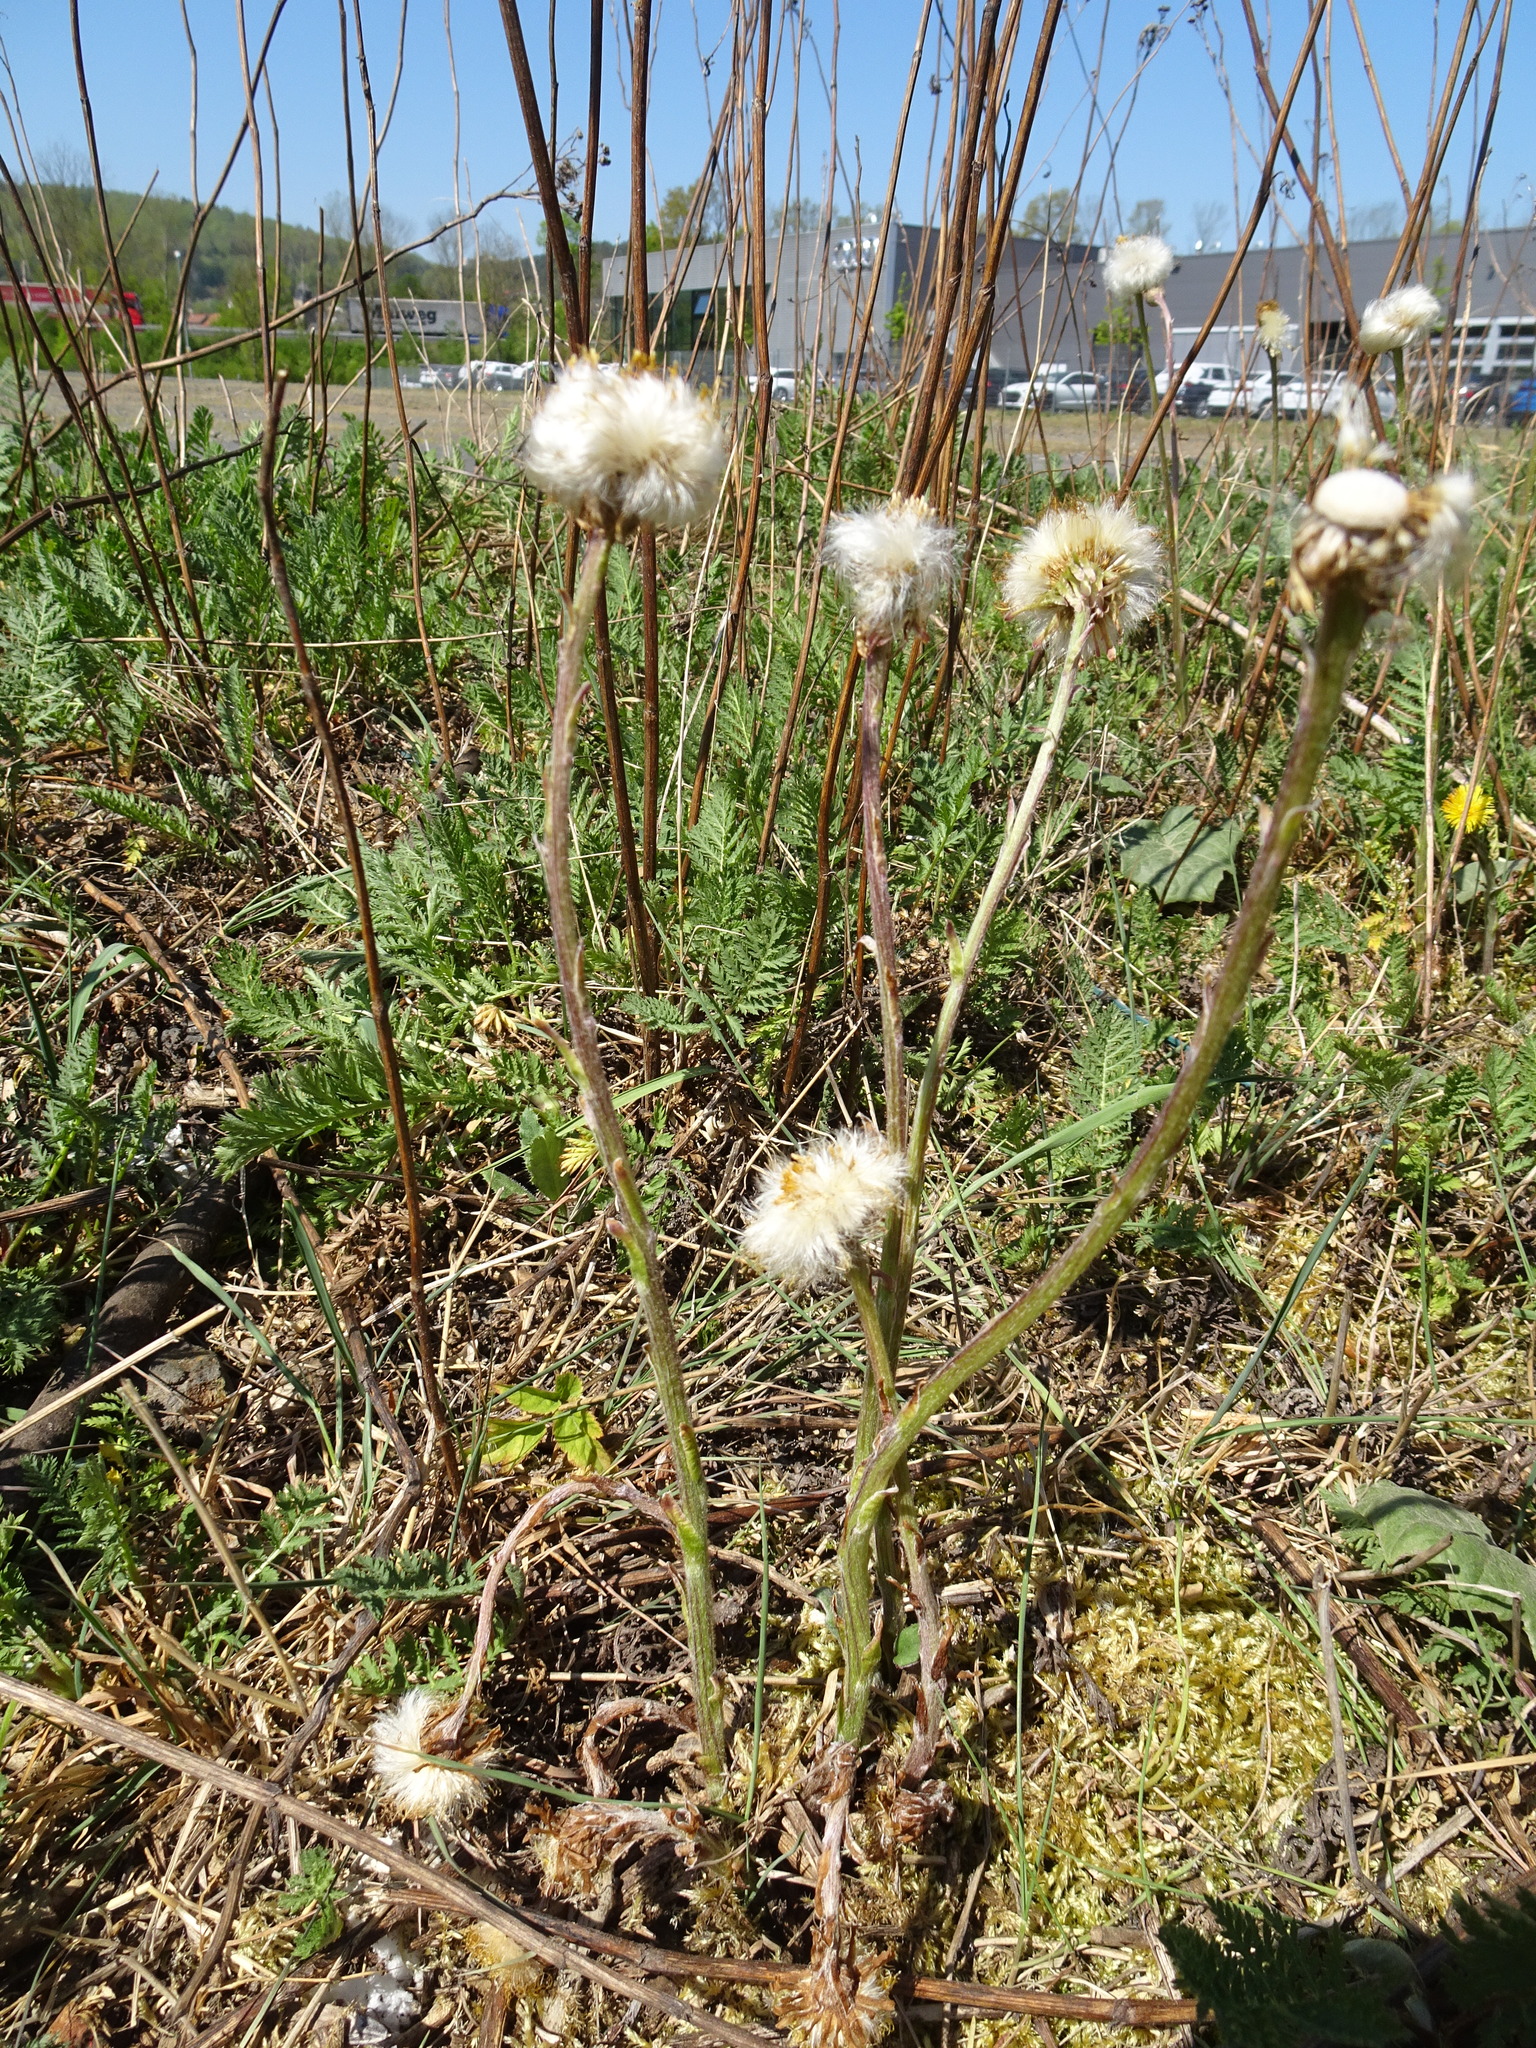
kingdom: Plantae
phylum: Tracheophyta
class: Magnoliopsida
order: Asterales
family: Asteraceae
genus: Tussilago
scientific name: Tussilago farfara
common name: Coltsfoot
